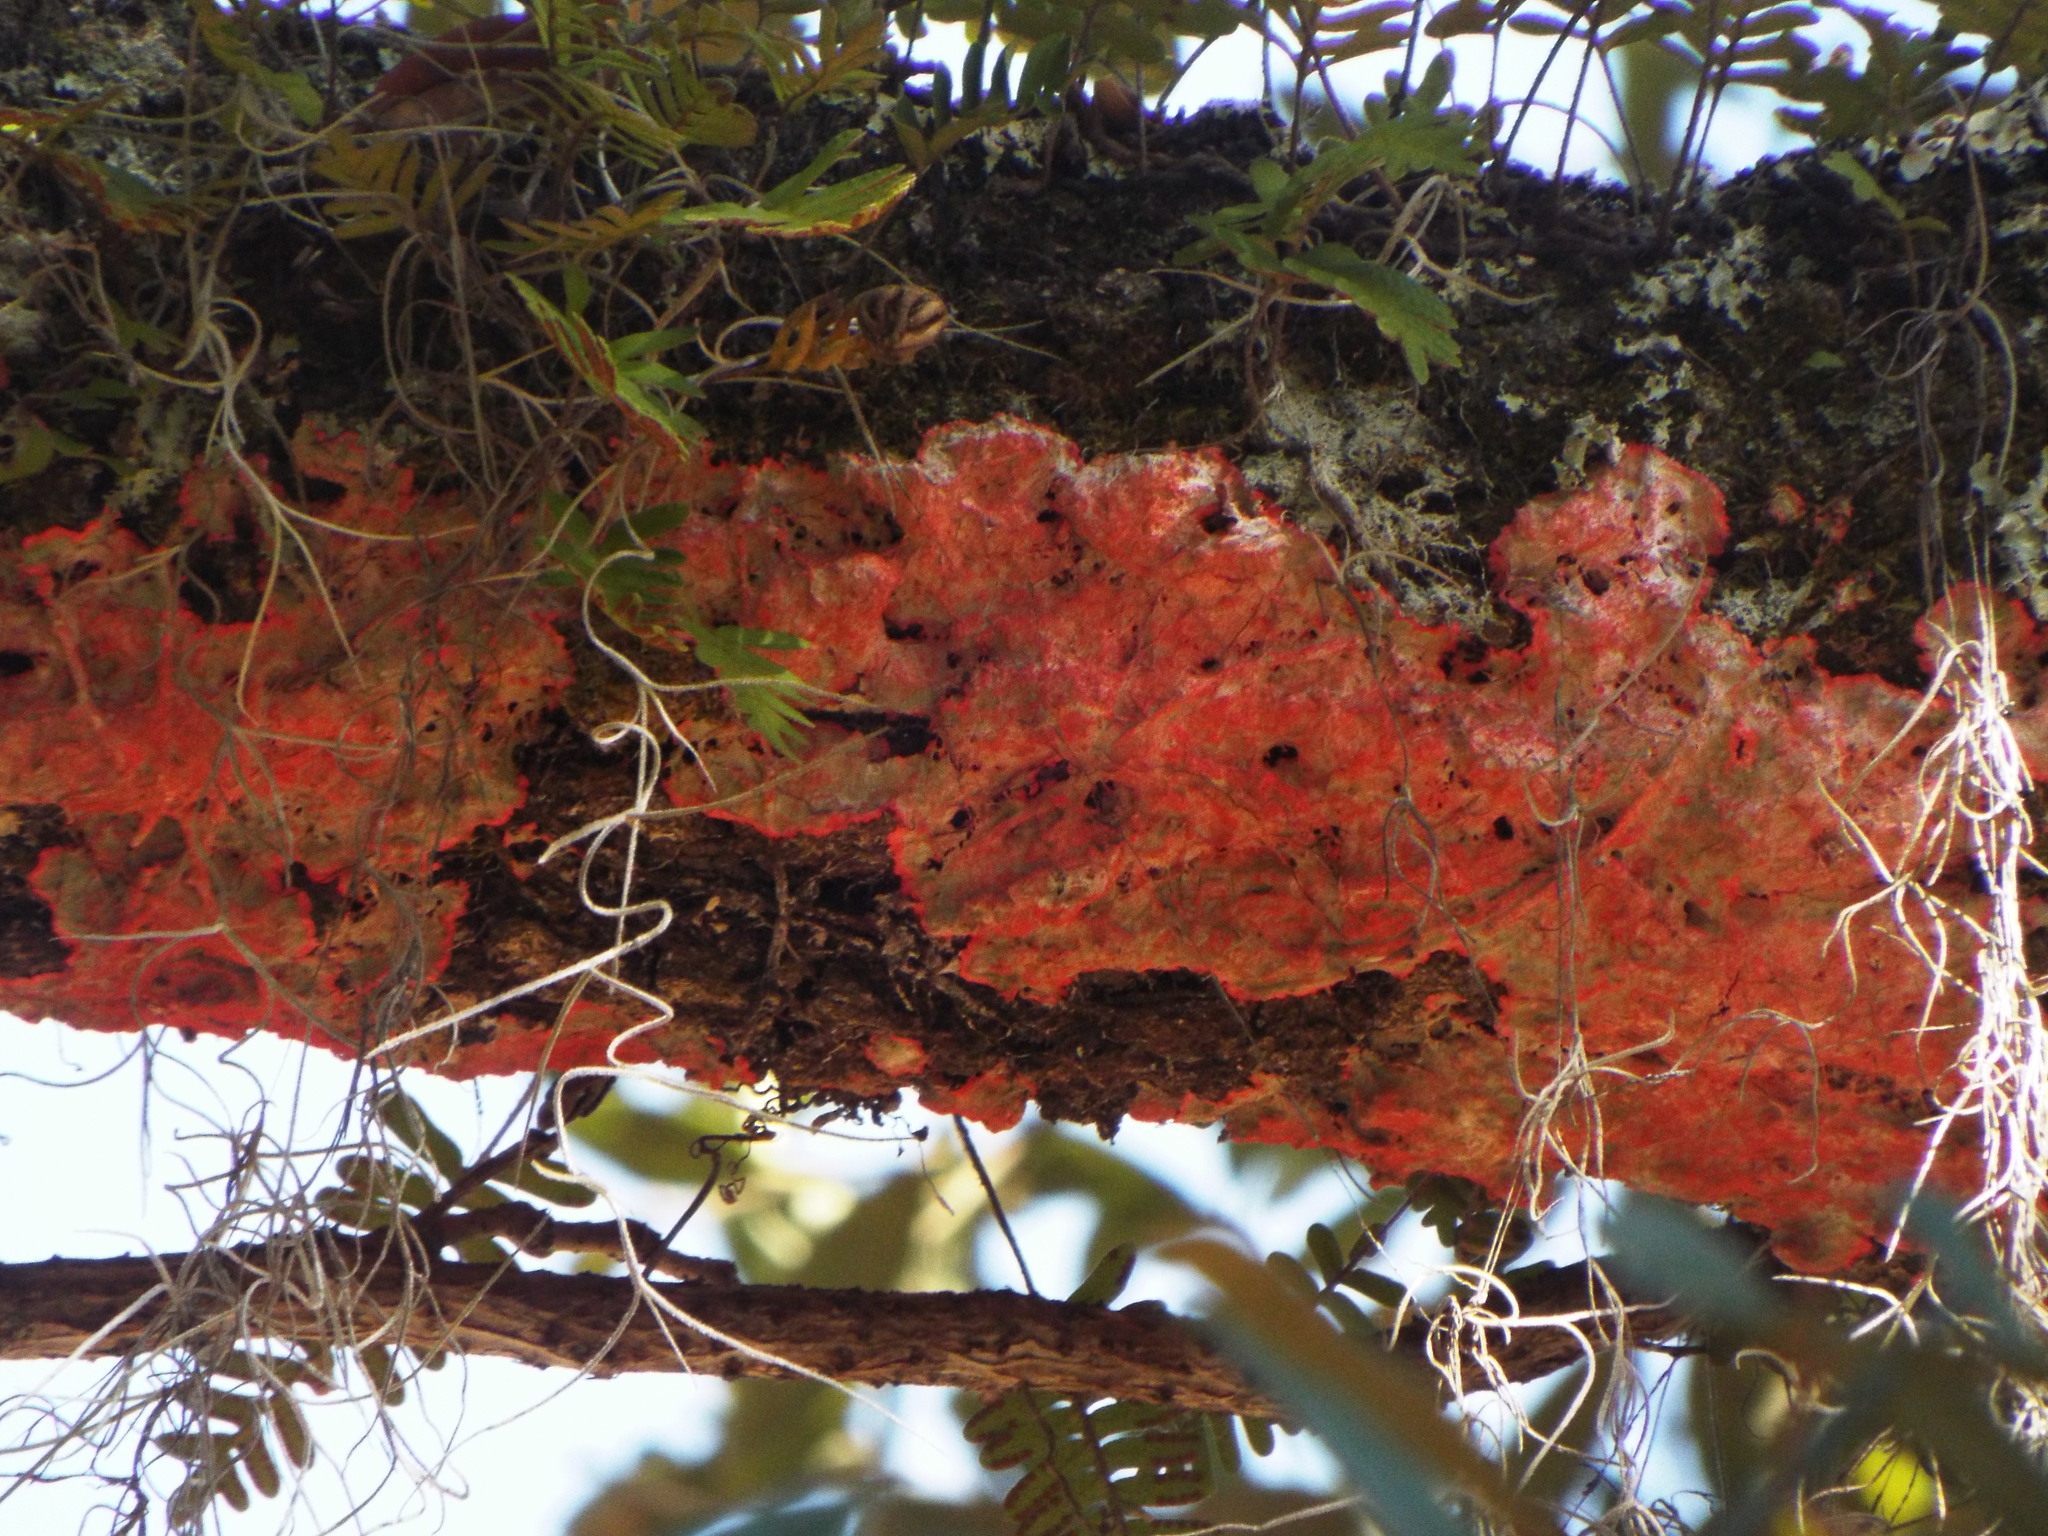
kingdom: Fungi
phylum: Ascomycota
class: Arthoniomycetes
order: Arthoniales
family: Arthoniaceae
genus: Herpothallon
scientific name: Herpothallon rubrocinctum
